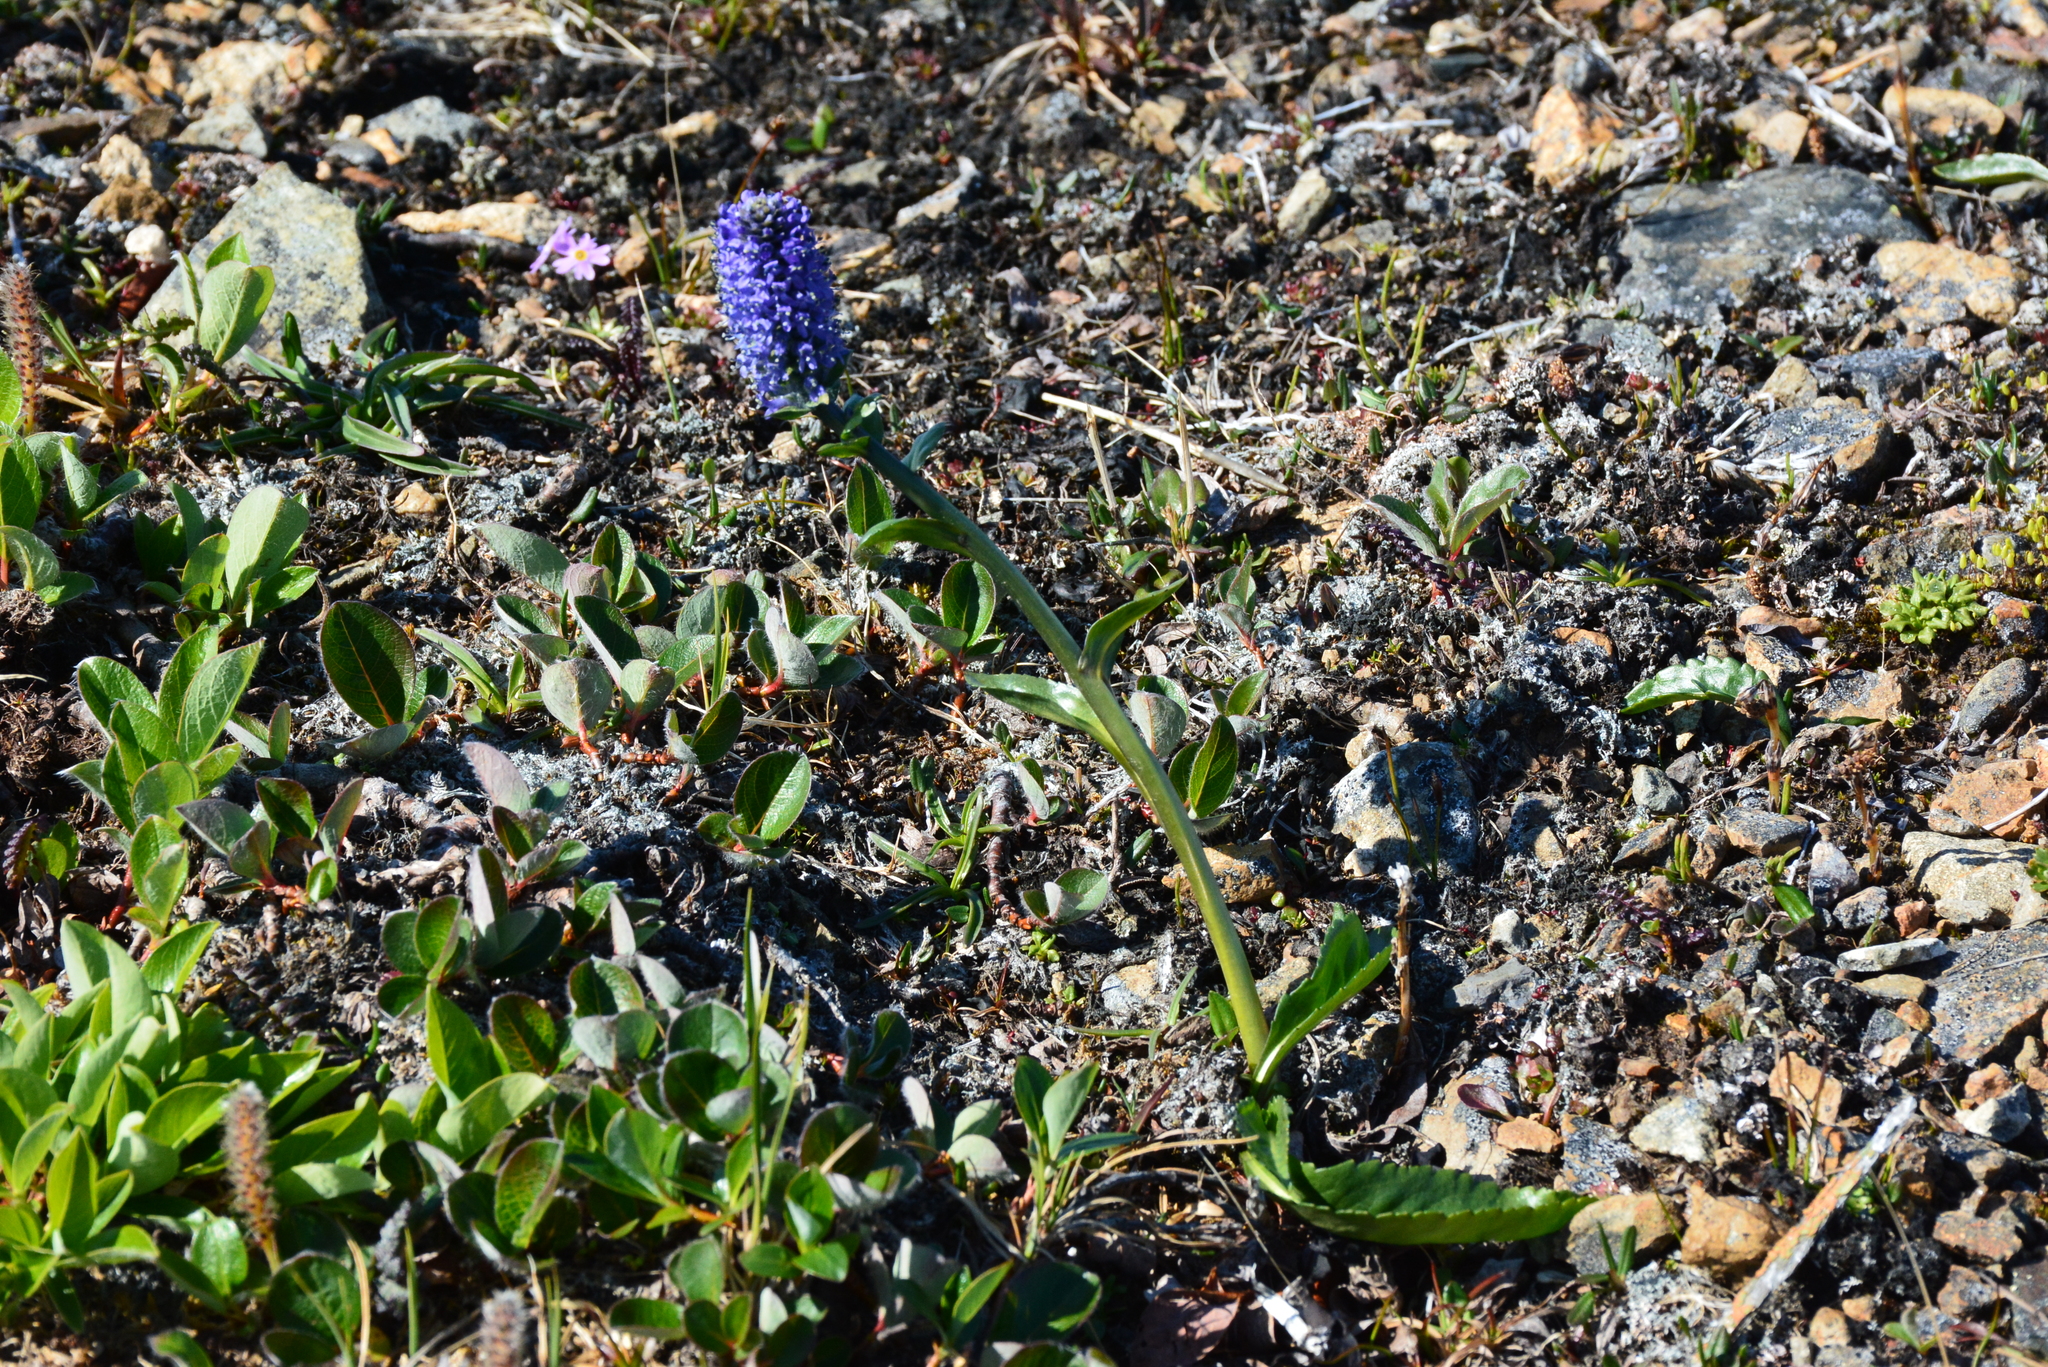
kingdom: Plantae
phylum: Tracheophyta
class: Magnoliopsida
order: Lamiales
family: Plantaginaceae
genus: Lagotis
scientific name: Lagotis glauca
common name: Glaucous weaselsnout
